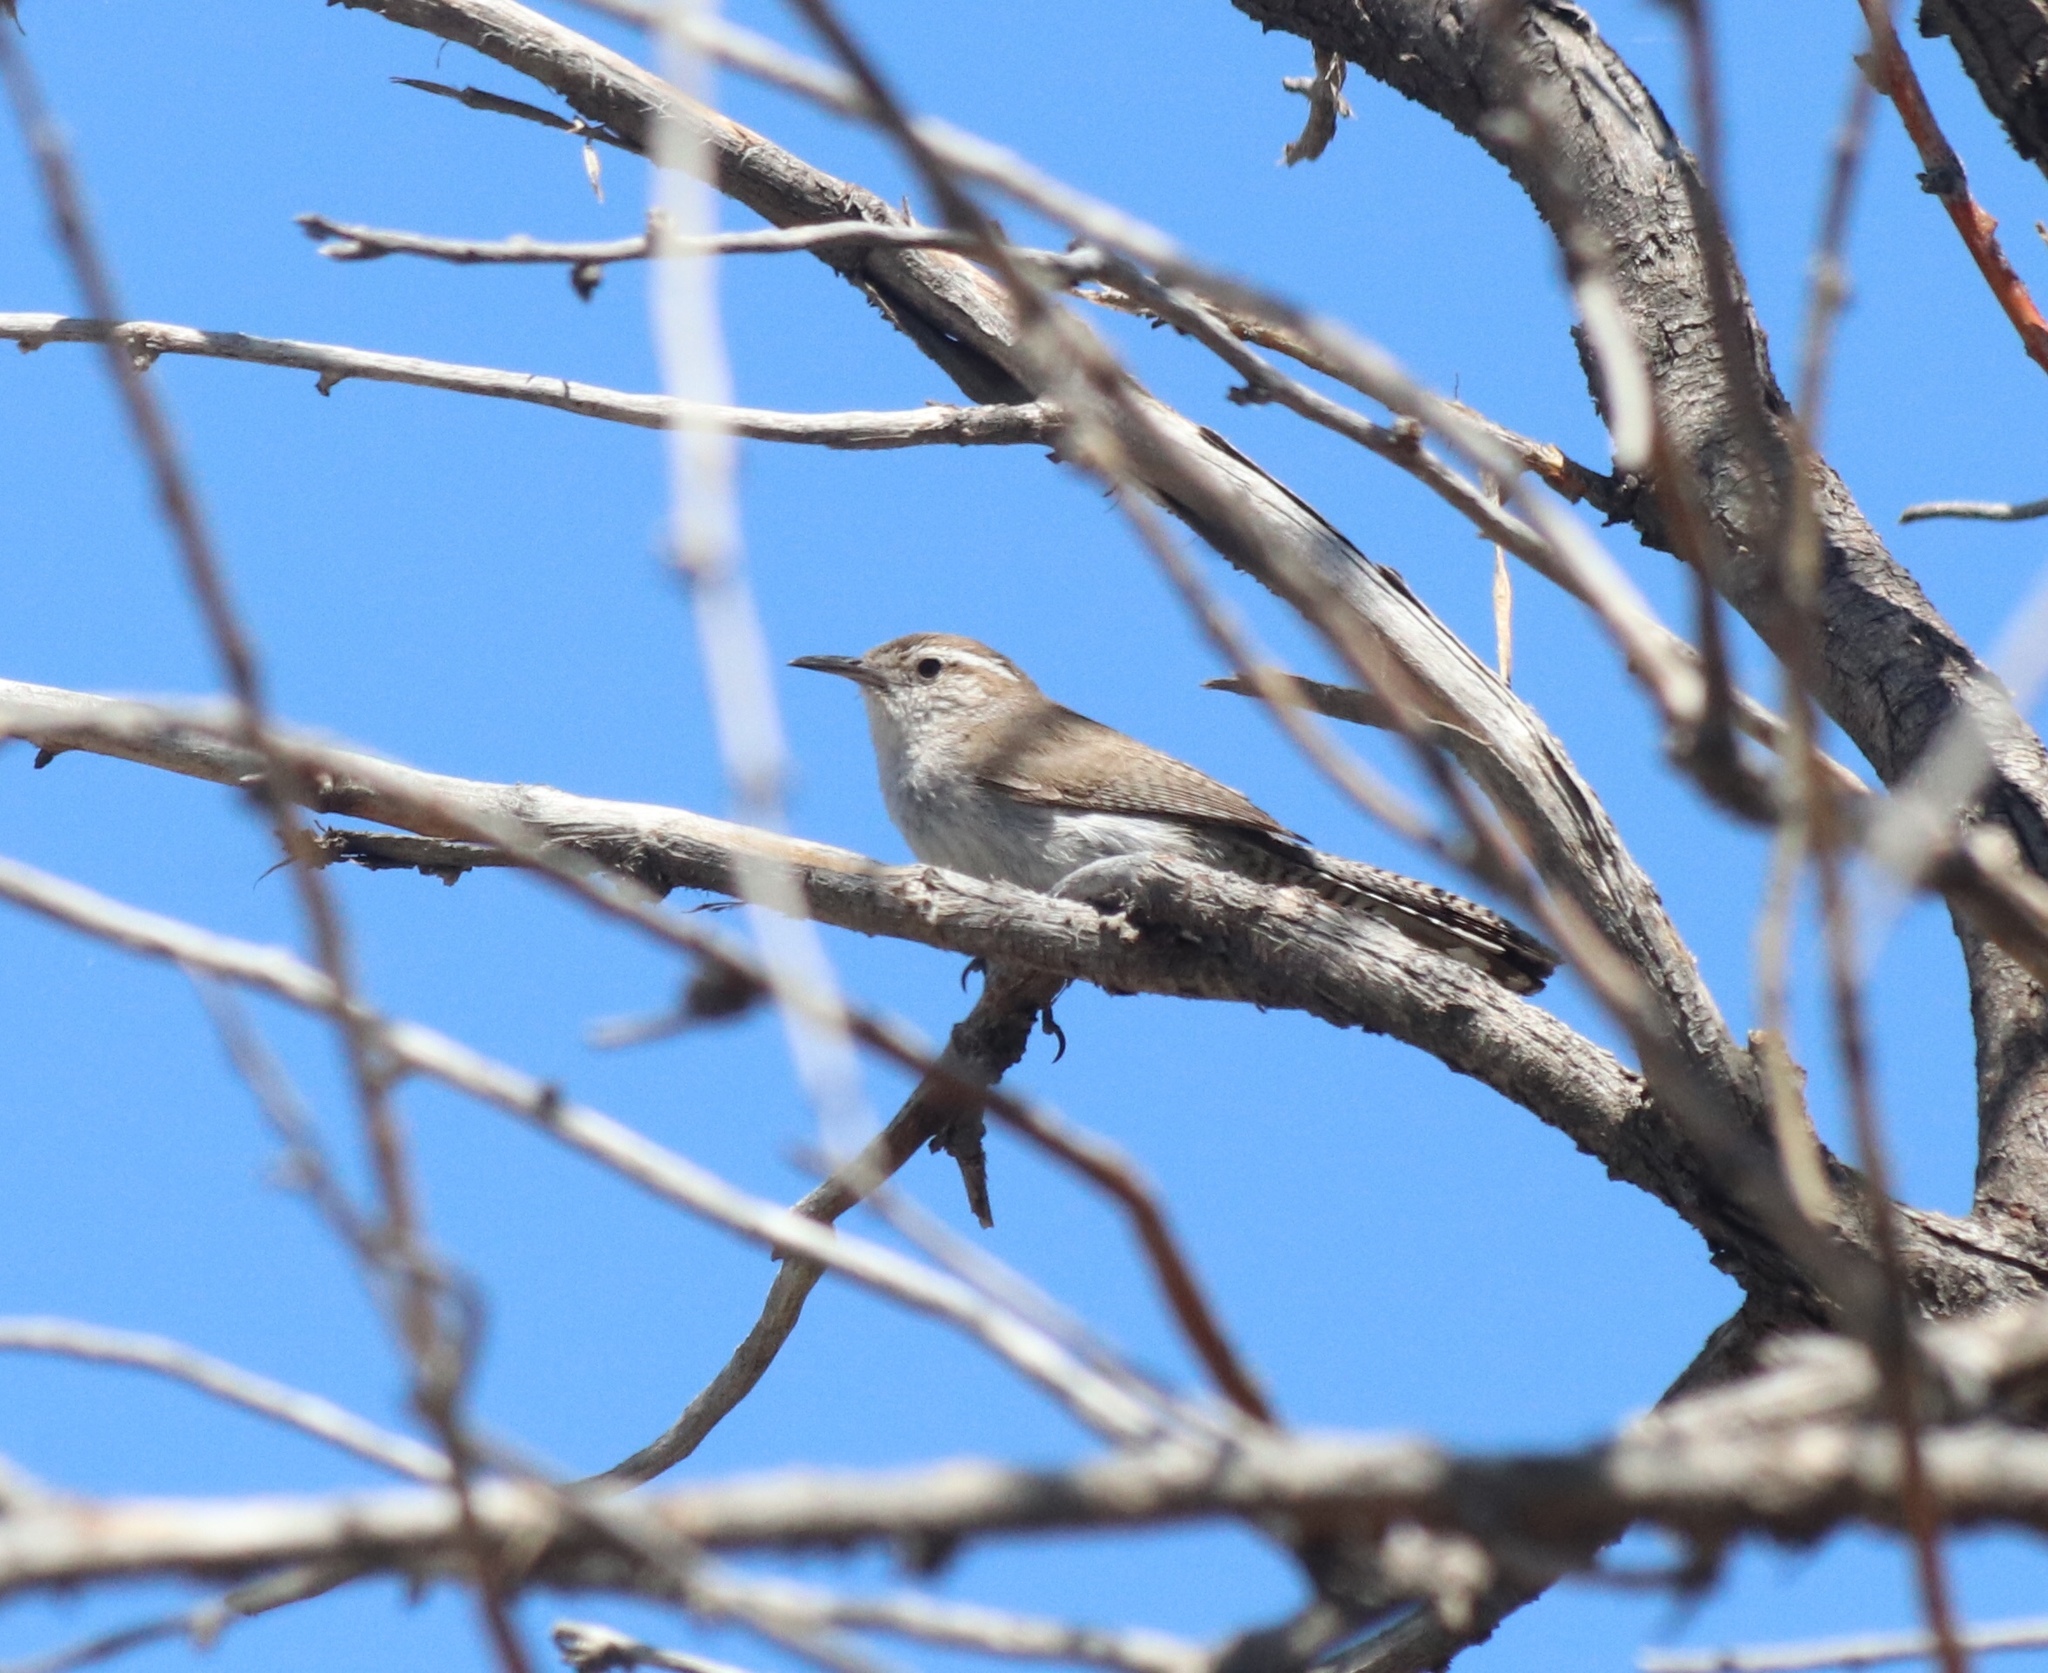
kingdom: Animalia
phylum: Chordata
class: Aves
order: Passeriformes
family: Troglodytidae
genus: Thryomanes
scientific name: Thryomanes bewickii
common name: Bewick's wren
